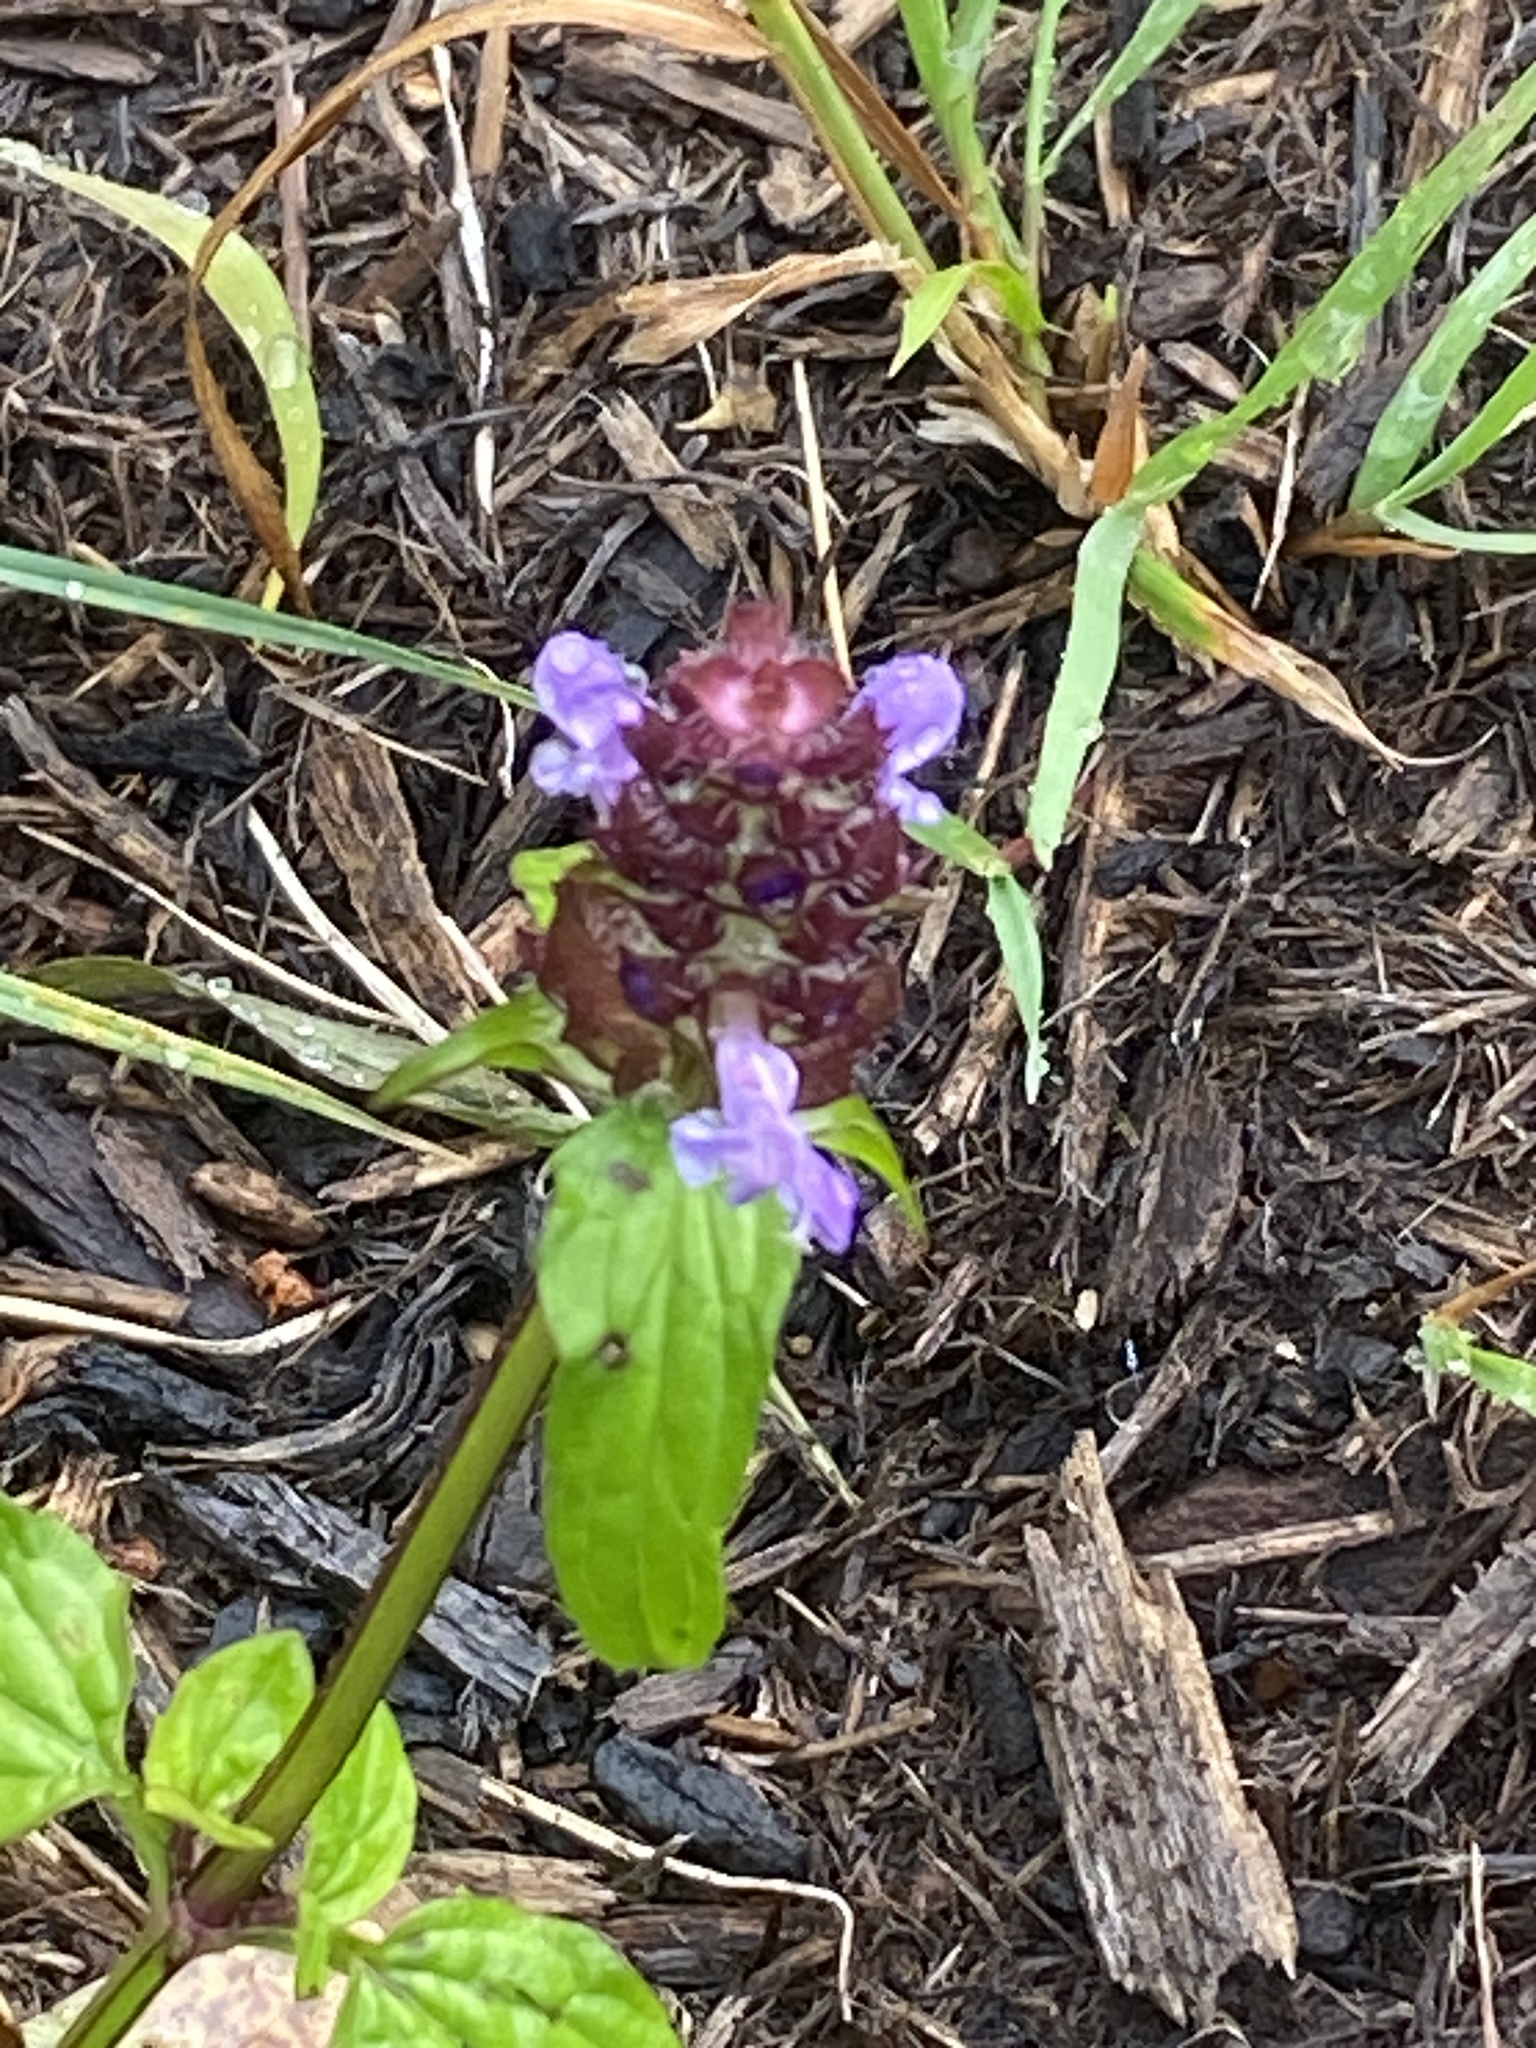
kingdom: Plantae
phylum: Tracheophyta
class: Magnoliopsida
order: Lamiales
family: Lamiaceae
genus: Prunella
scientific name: Prunella vulgaris
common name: Heal-all
